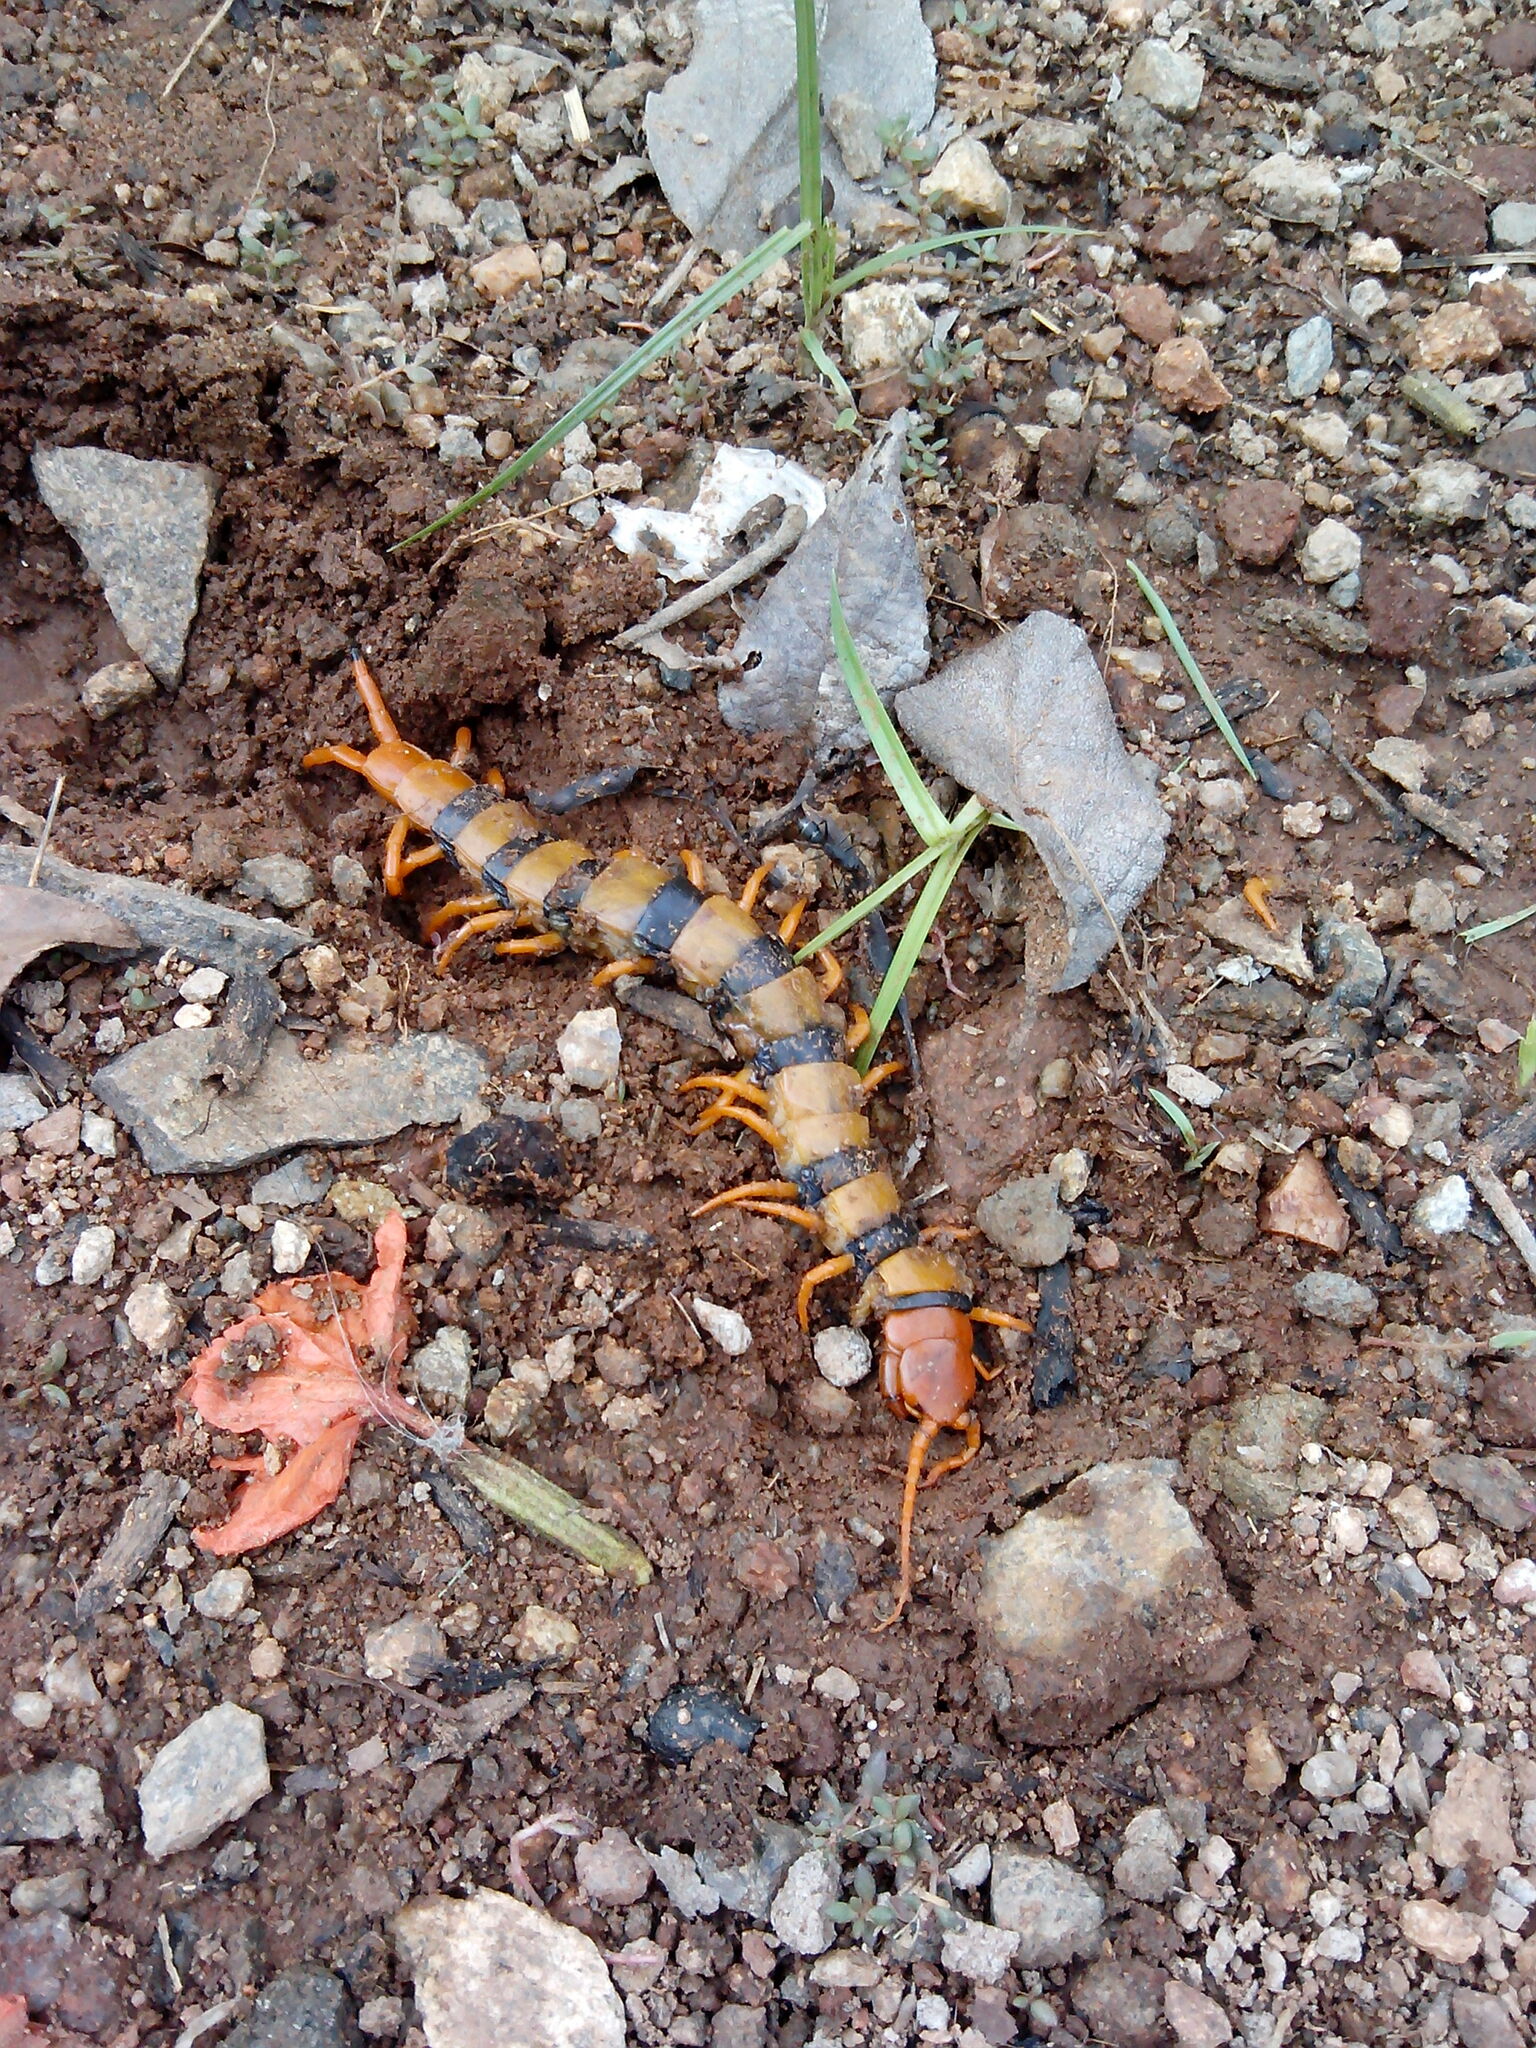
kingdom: Animalia
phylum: Arthropoda
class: Chilopoda
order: Scolopendromorpha
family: Scolopendridae
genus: Scolopendra
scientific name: Scolopendra hardwickei
